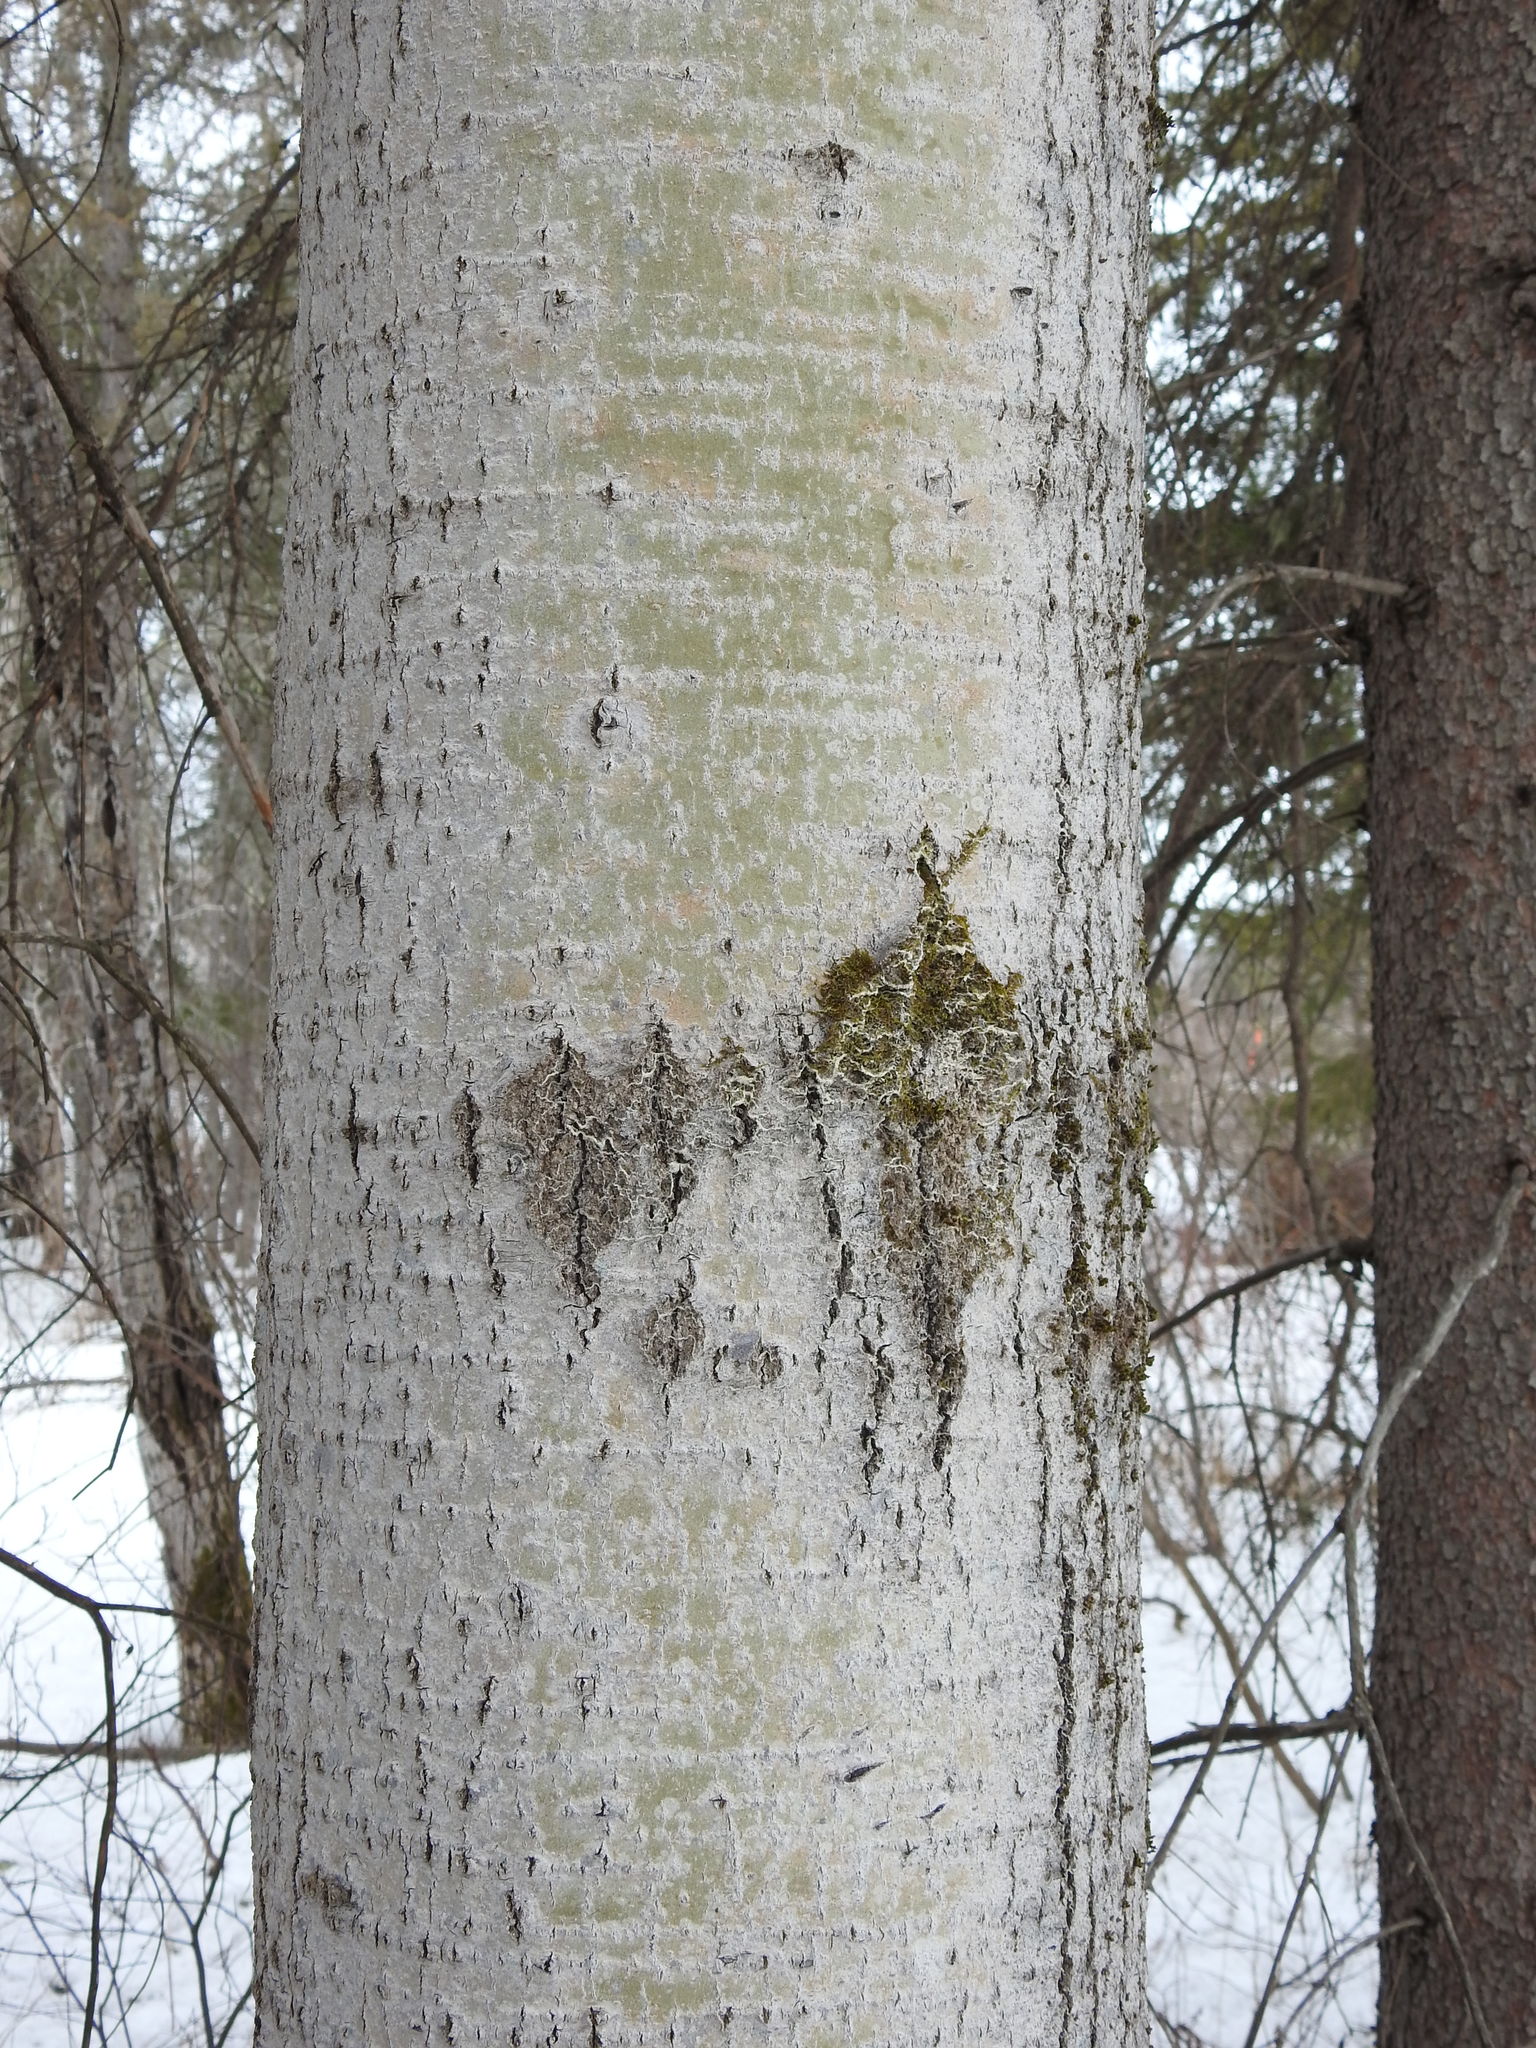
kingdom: Plantae
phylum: Tracheophyta
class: Magnoliopsida
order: Malpighiales
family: Salicaceae
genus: Populus
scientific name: Populus tremuloides
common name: Quaking aspen
